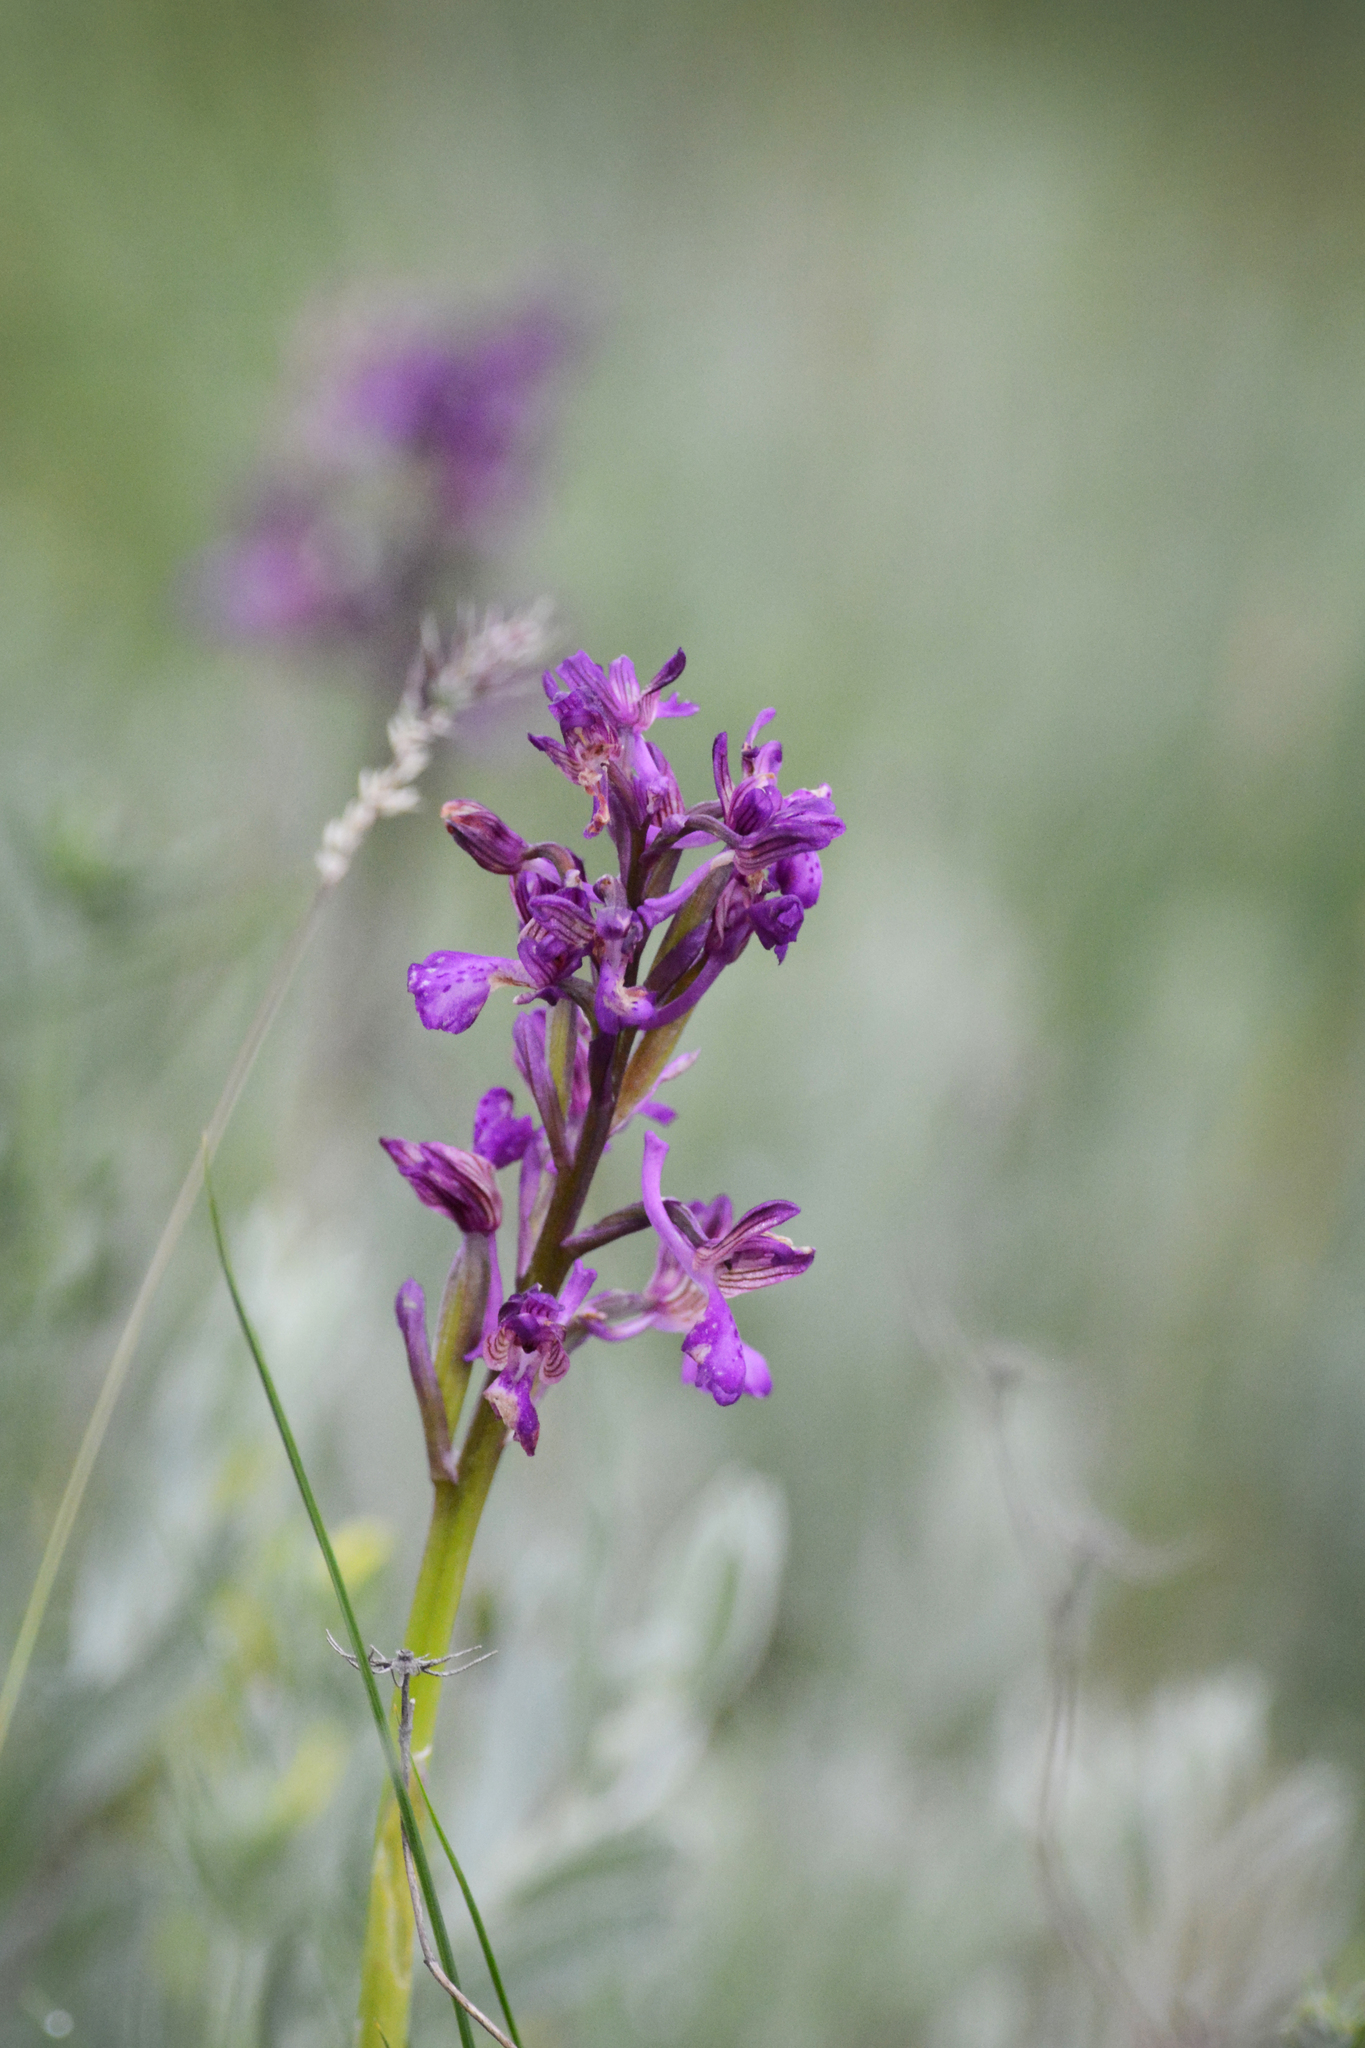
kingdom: Plantae
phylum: Tracheophyta
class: Liliopsida
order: Asparagales
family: Orchidaceae
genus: Anacamptis
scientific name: Anacamptis morio
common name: Green-winged orchid
